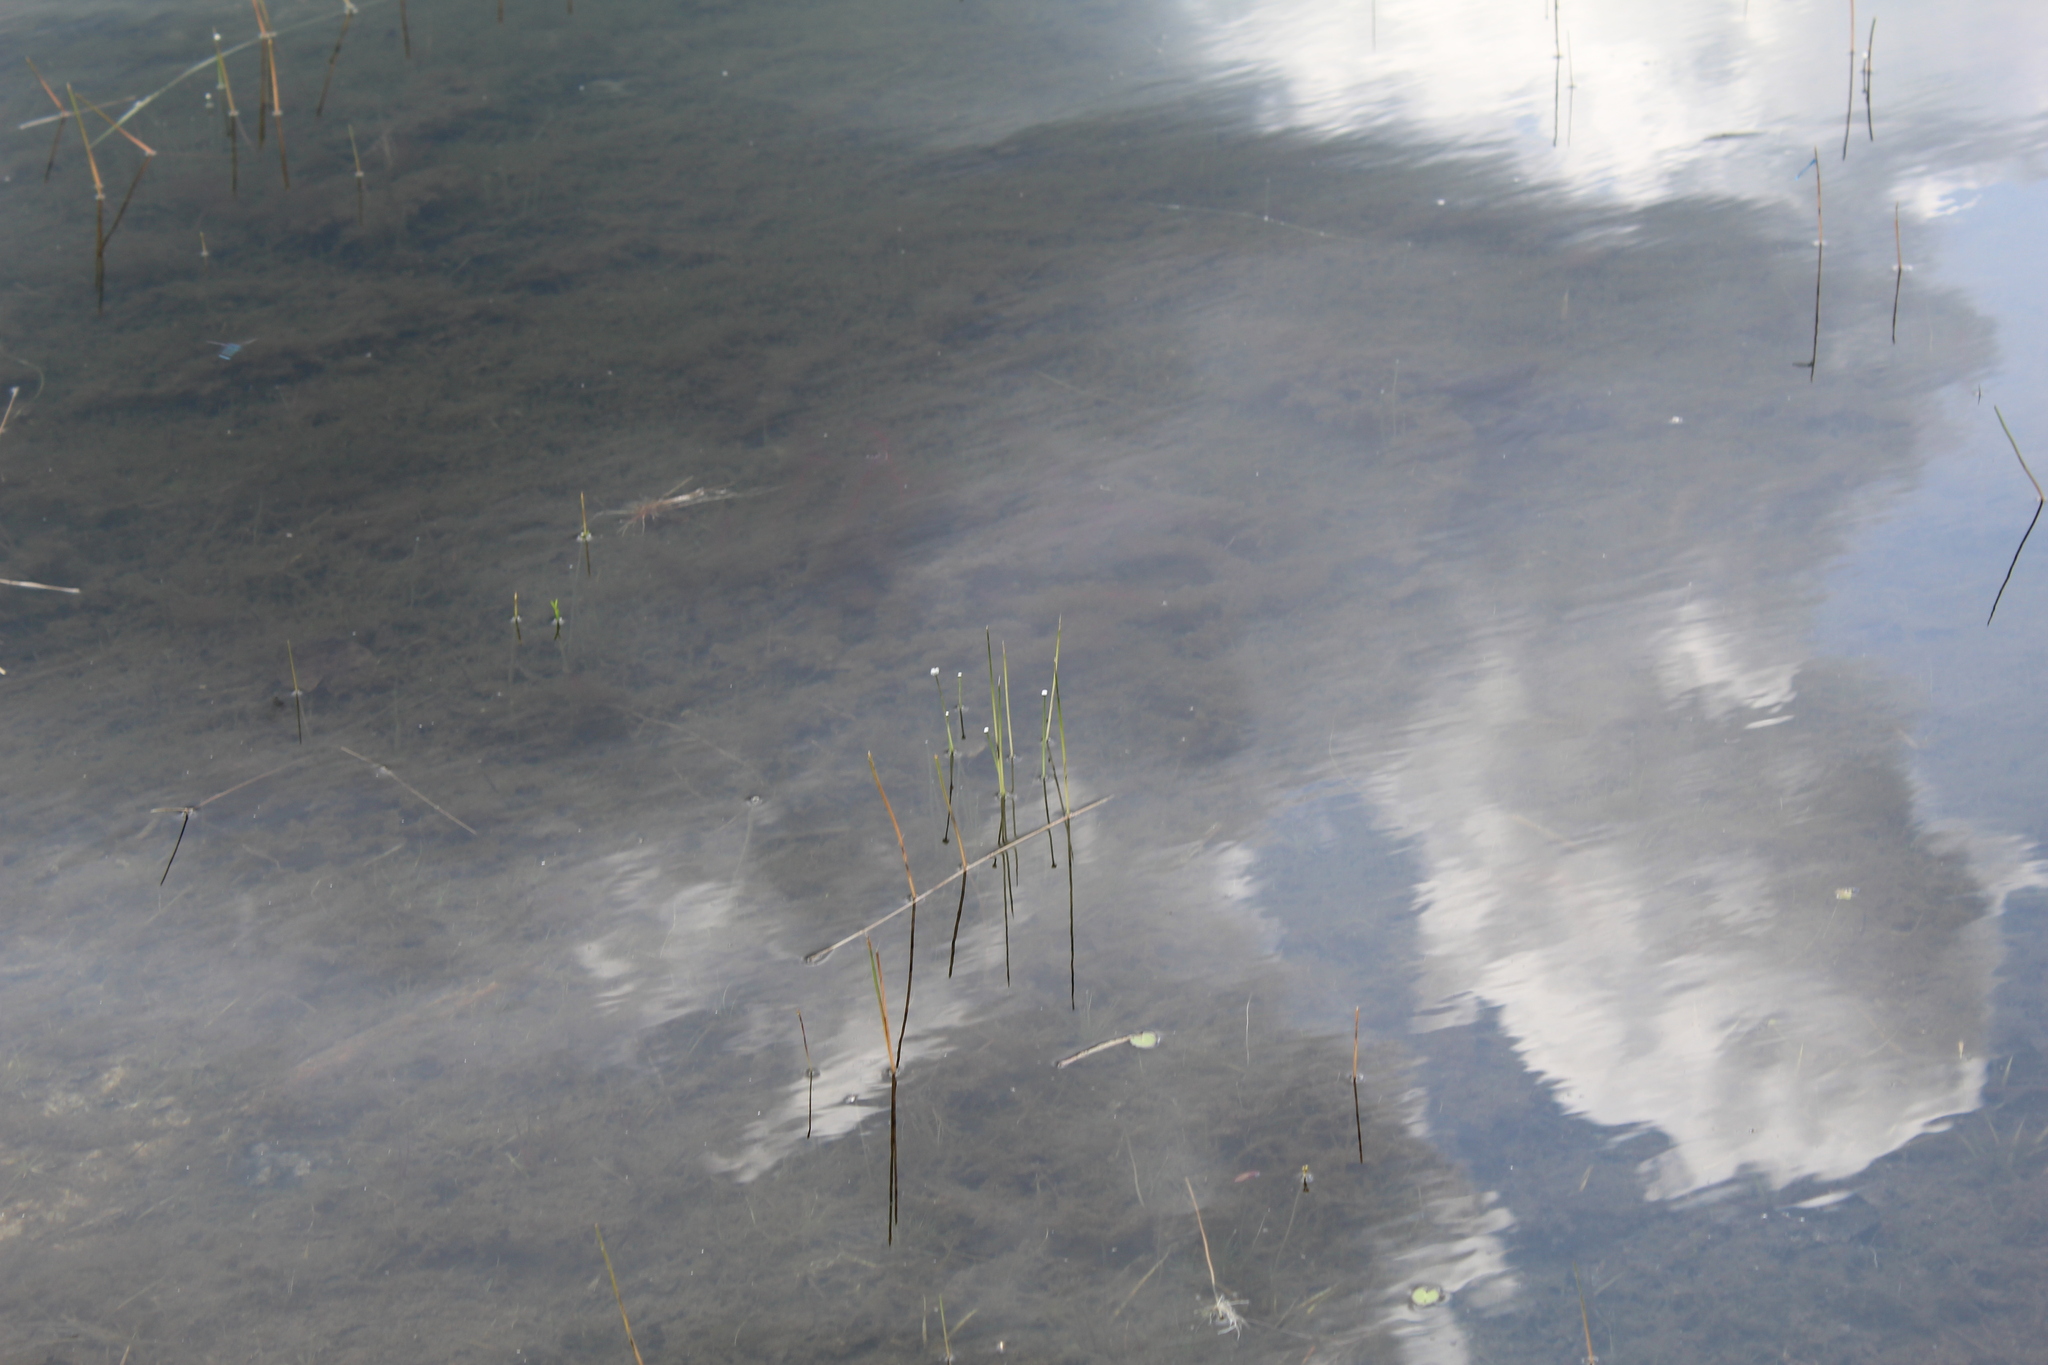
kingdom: Plantae
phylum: Tracheophyta
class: Liliopsida
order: Poales
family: Eriocaulaceae
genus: Eriocaulon
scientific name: Eriocaulon aquaticum
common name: Pipewort
